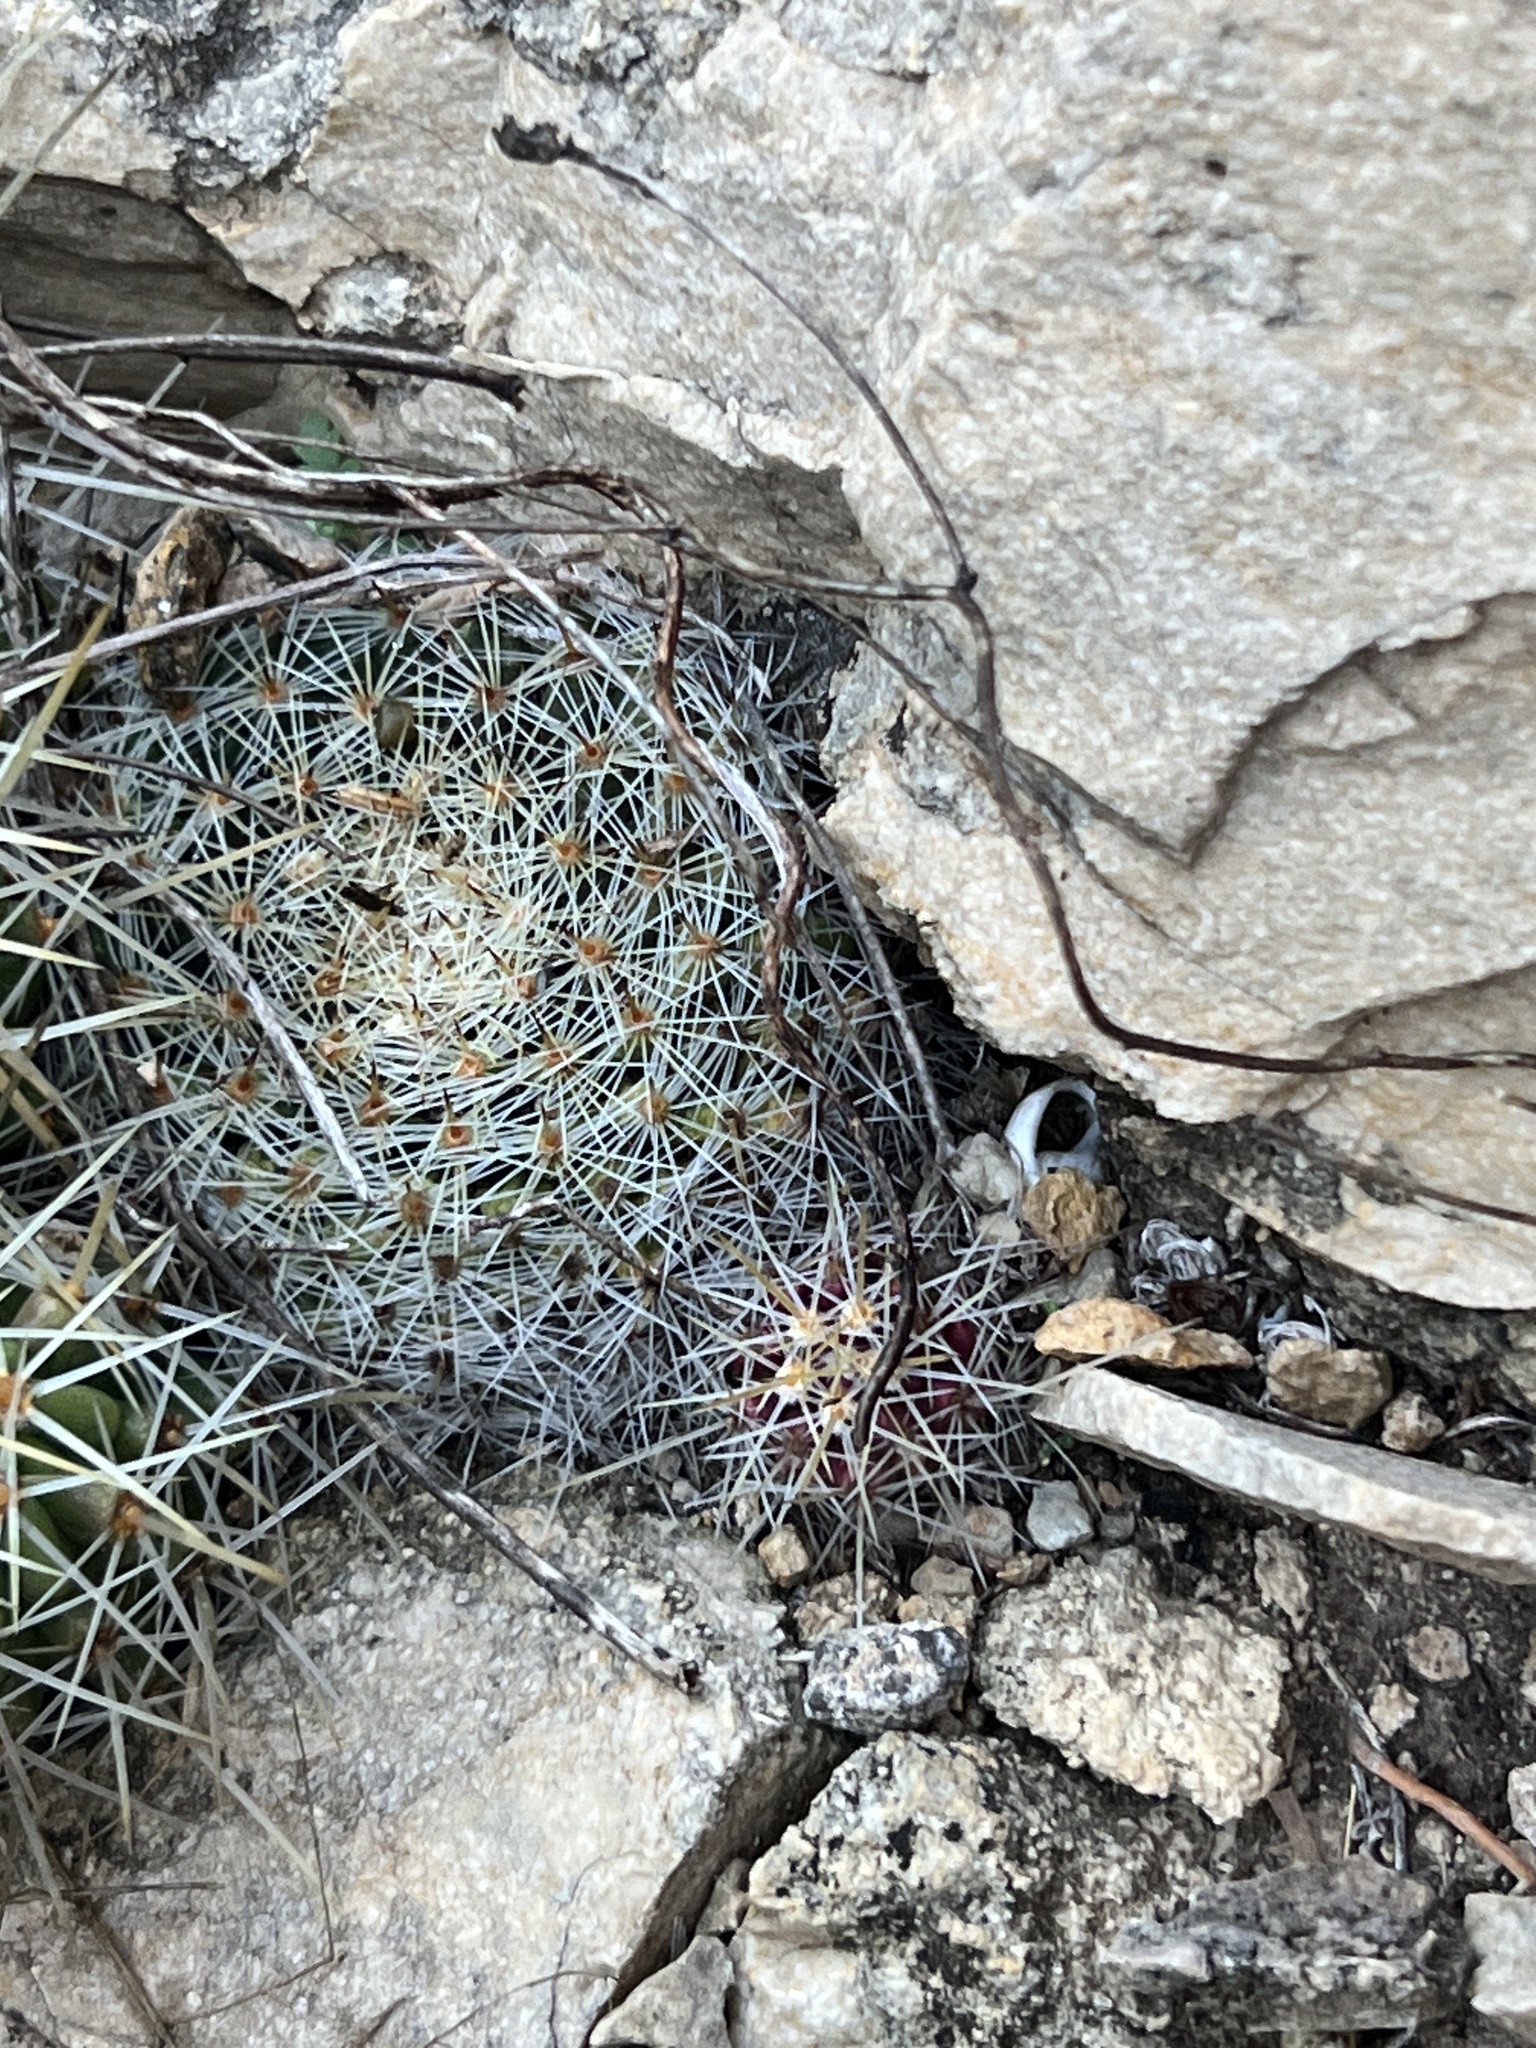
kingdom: Plantae
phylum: Tracheophyta
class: Magnoliopsida
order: Caryophyllales
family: Cactaceae
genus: Mammillaria
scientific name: Mammillaria heyderi
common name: Little nipple cactus
